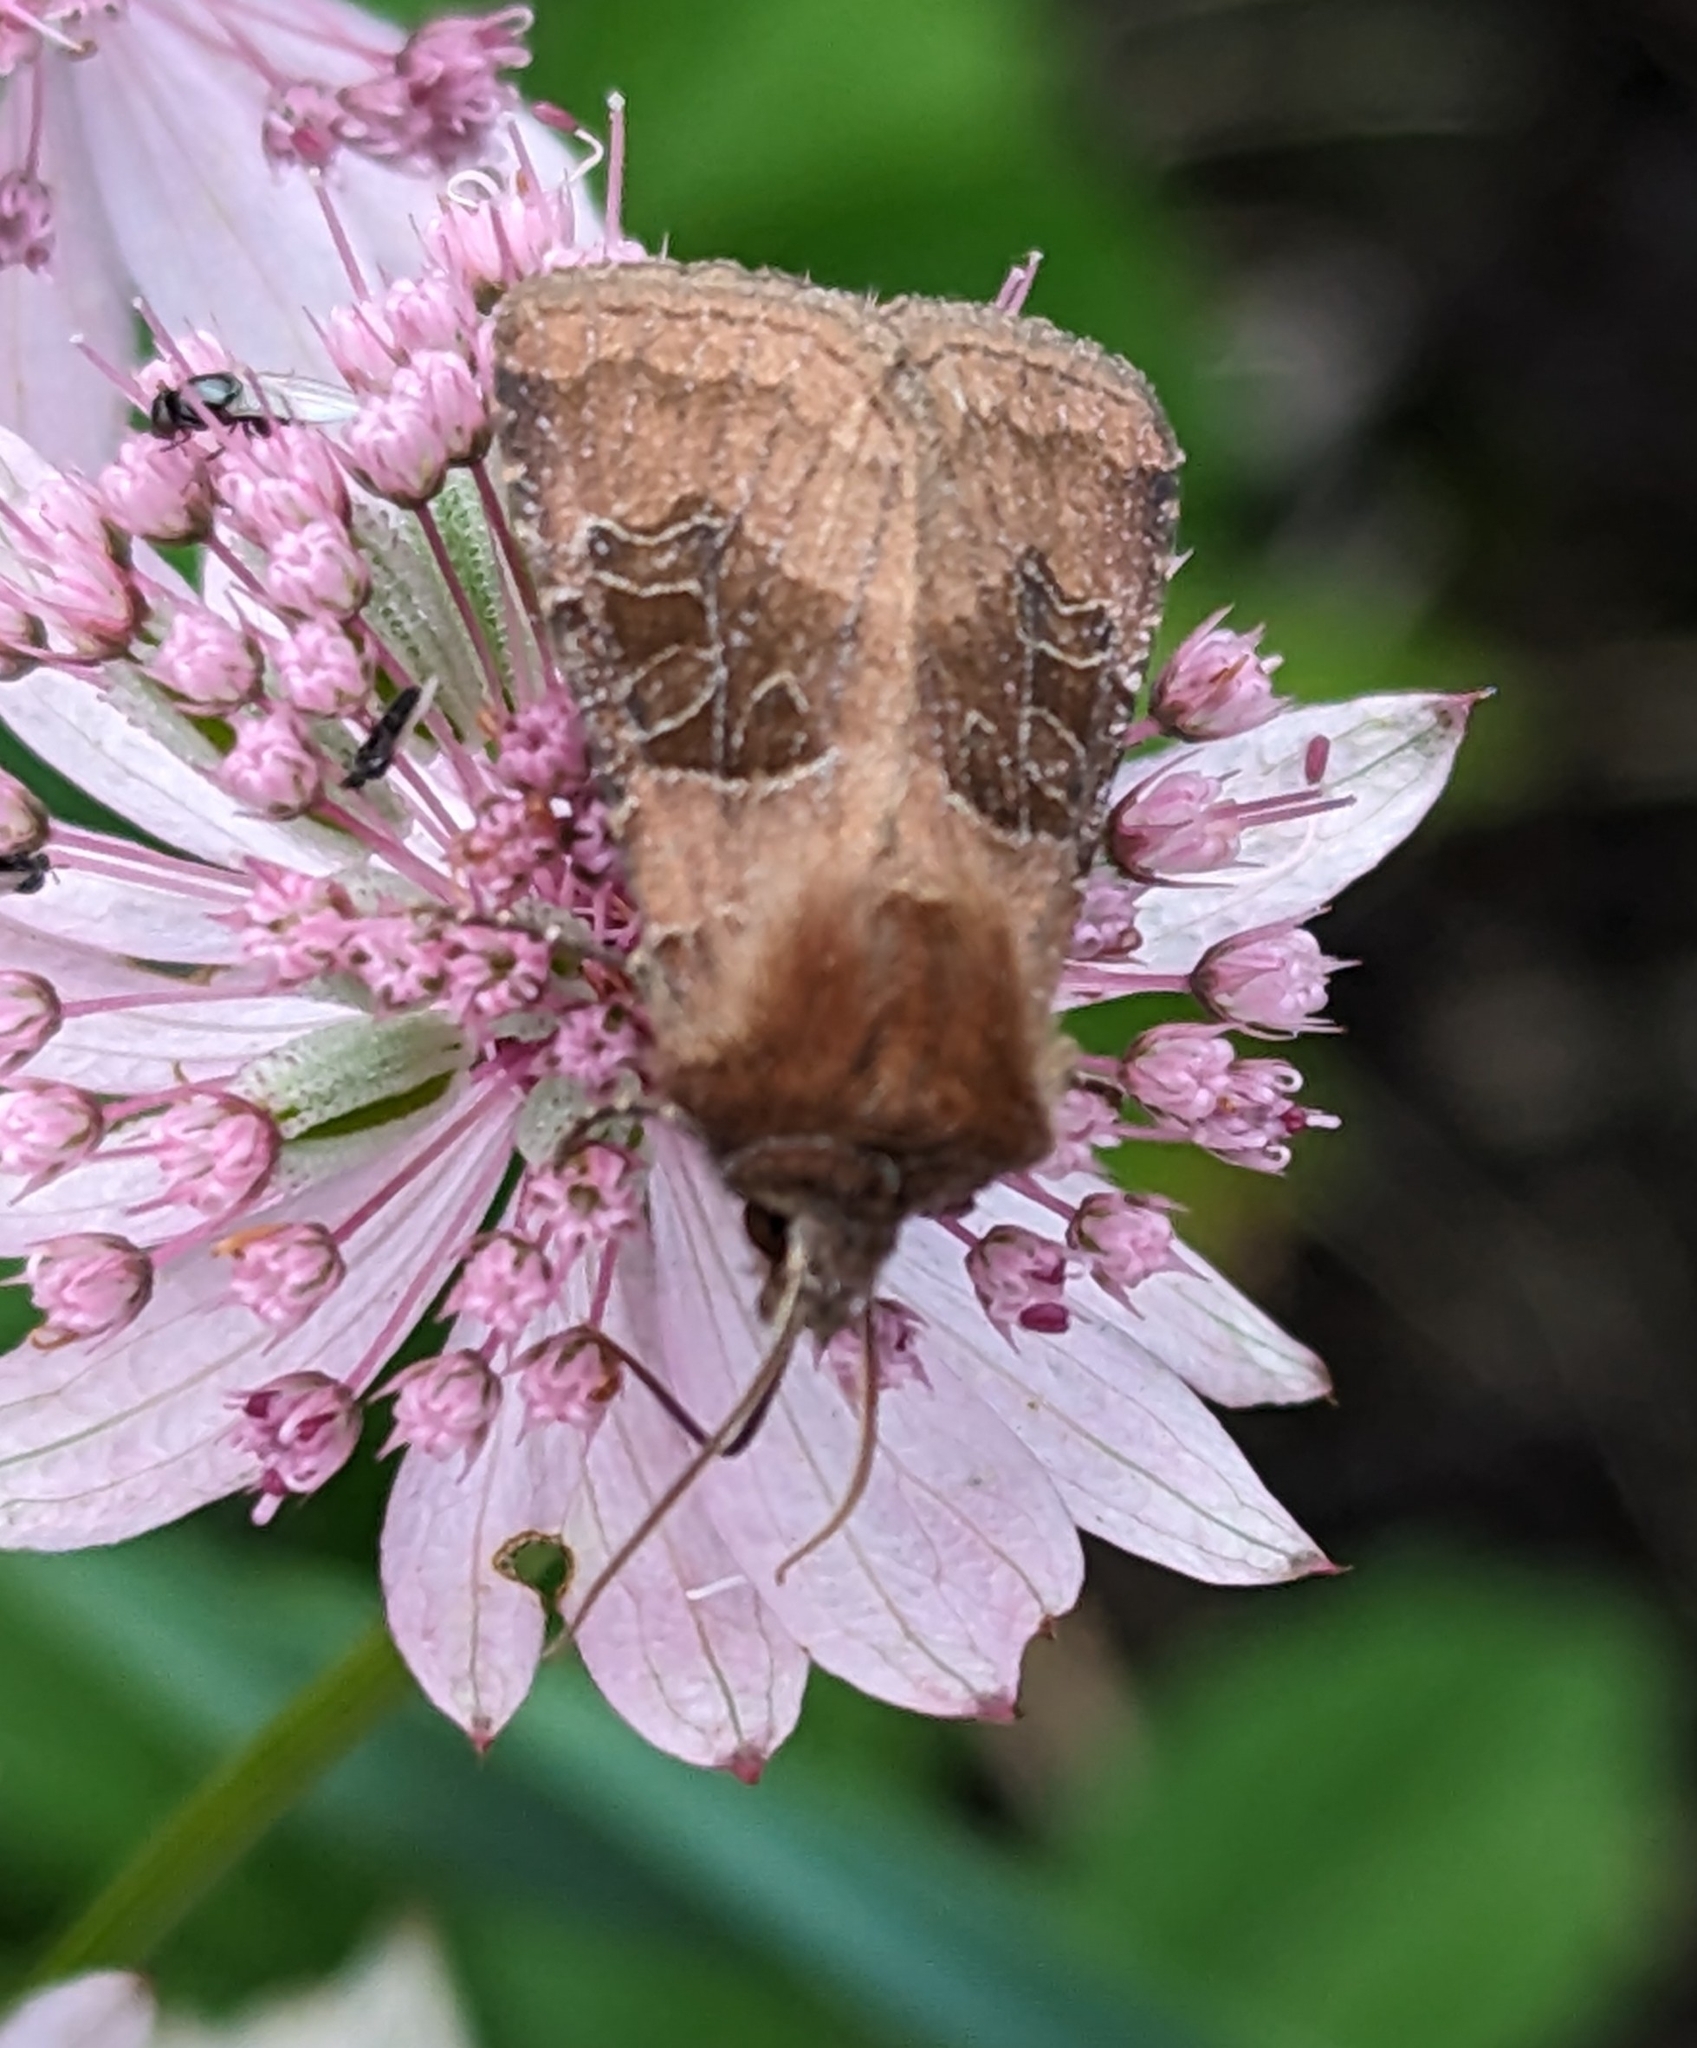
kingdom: Animalia
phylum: Arthropoda
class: Insecta
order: Lepidoptera
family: Noctuidae
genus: Chersotis
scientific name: Chersotis cuprea
